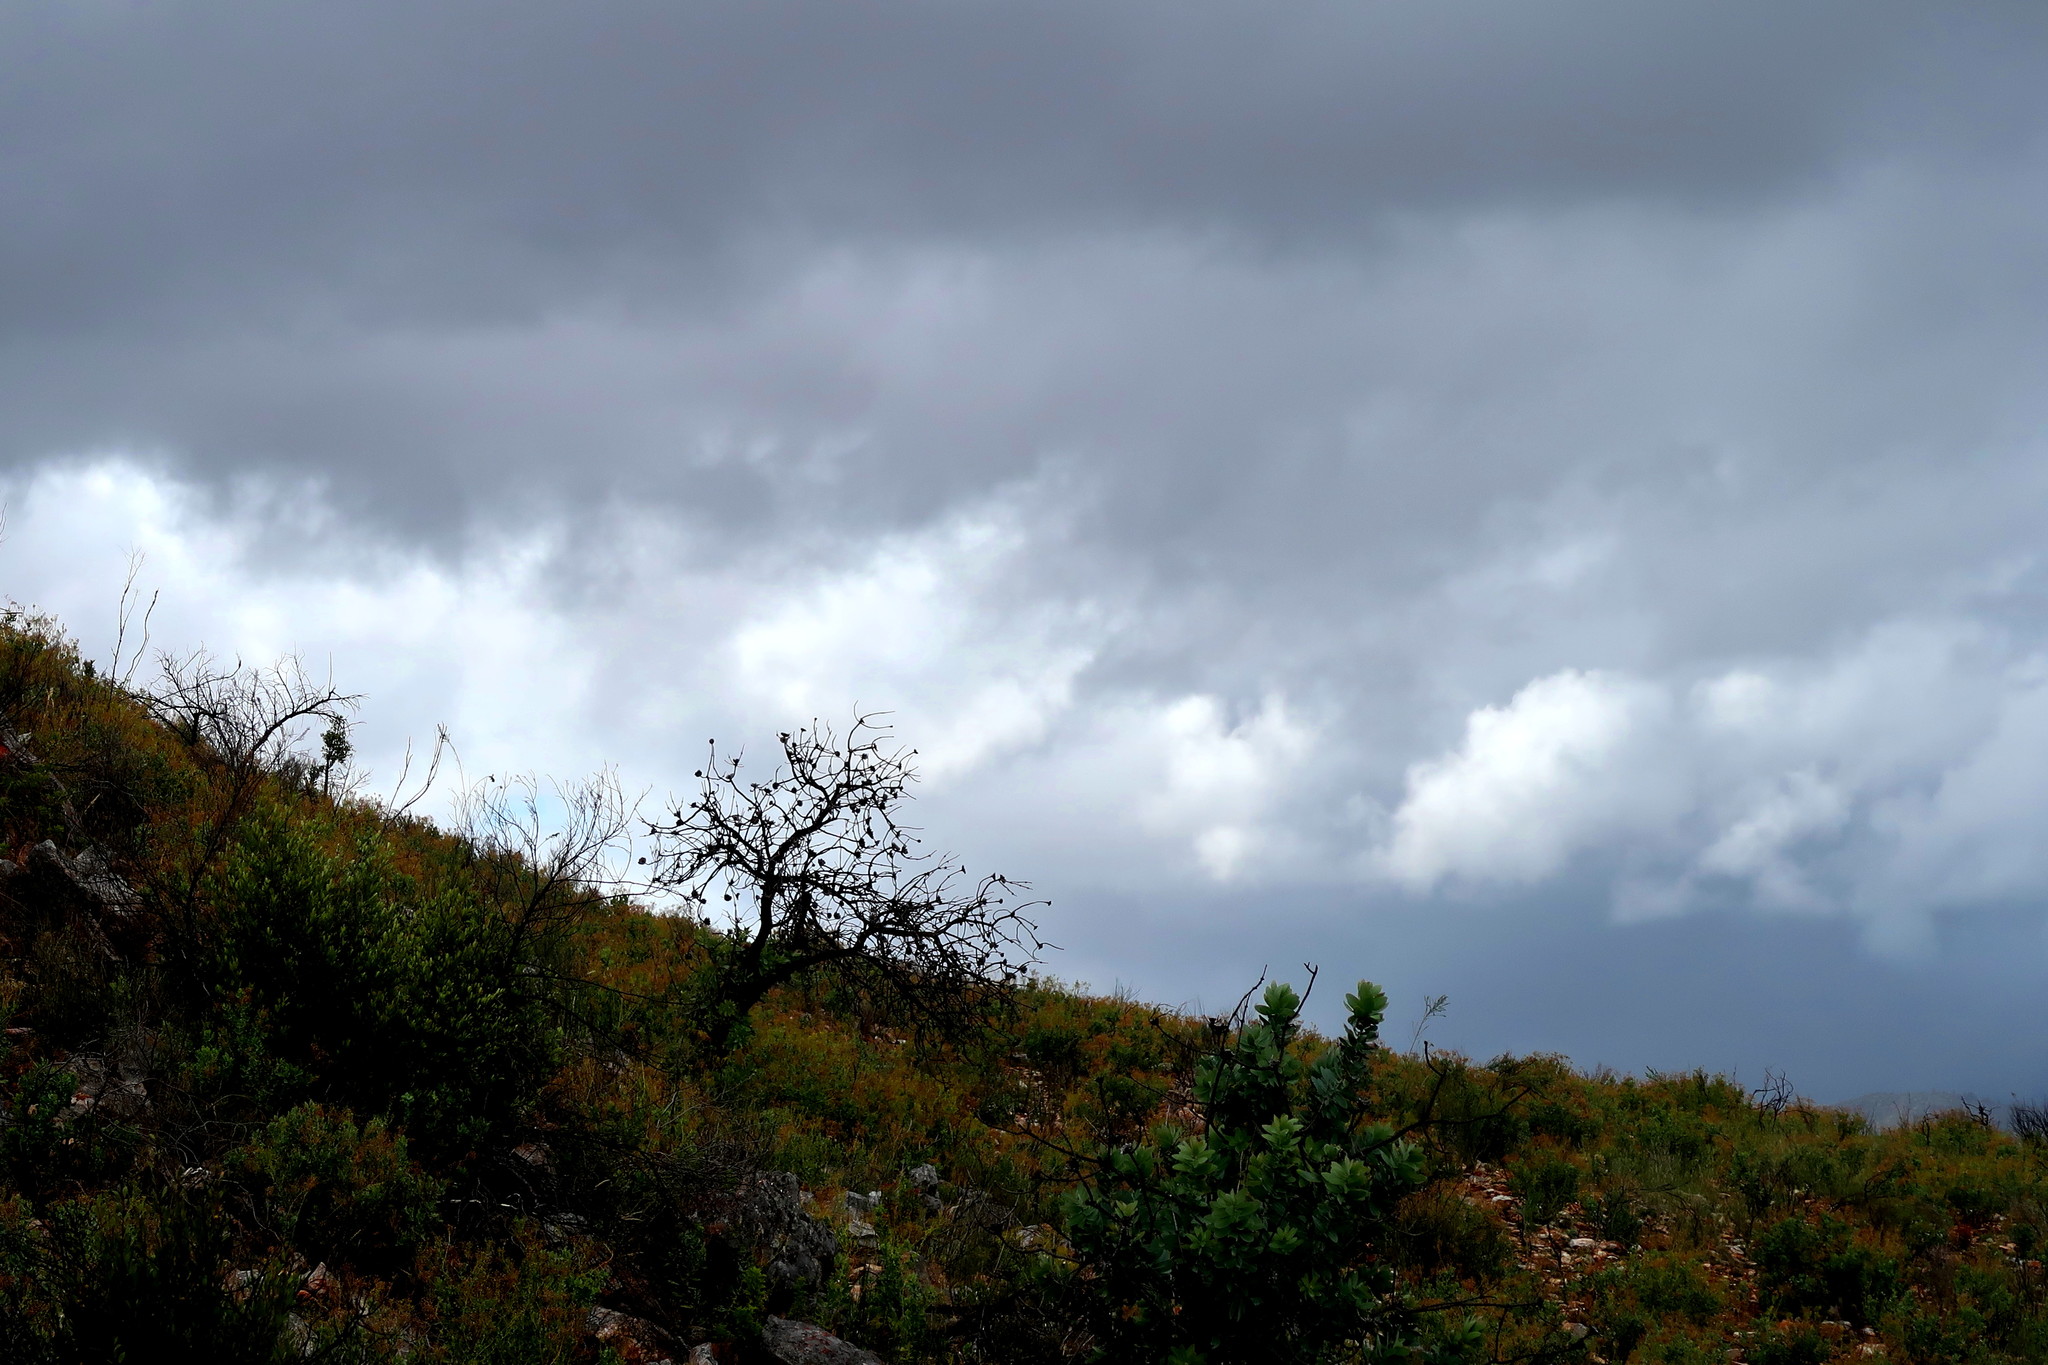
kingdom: Plantae
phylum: Tracheophyta
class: Magnoliopsida
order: Proteales
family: Proteaceae
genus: Protea
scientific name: Protea nitida
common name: Tree protea
